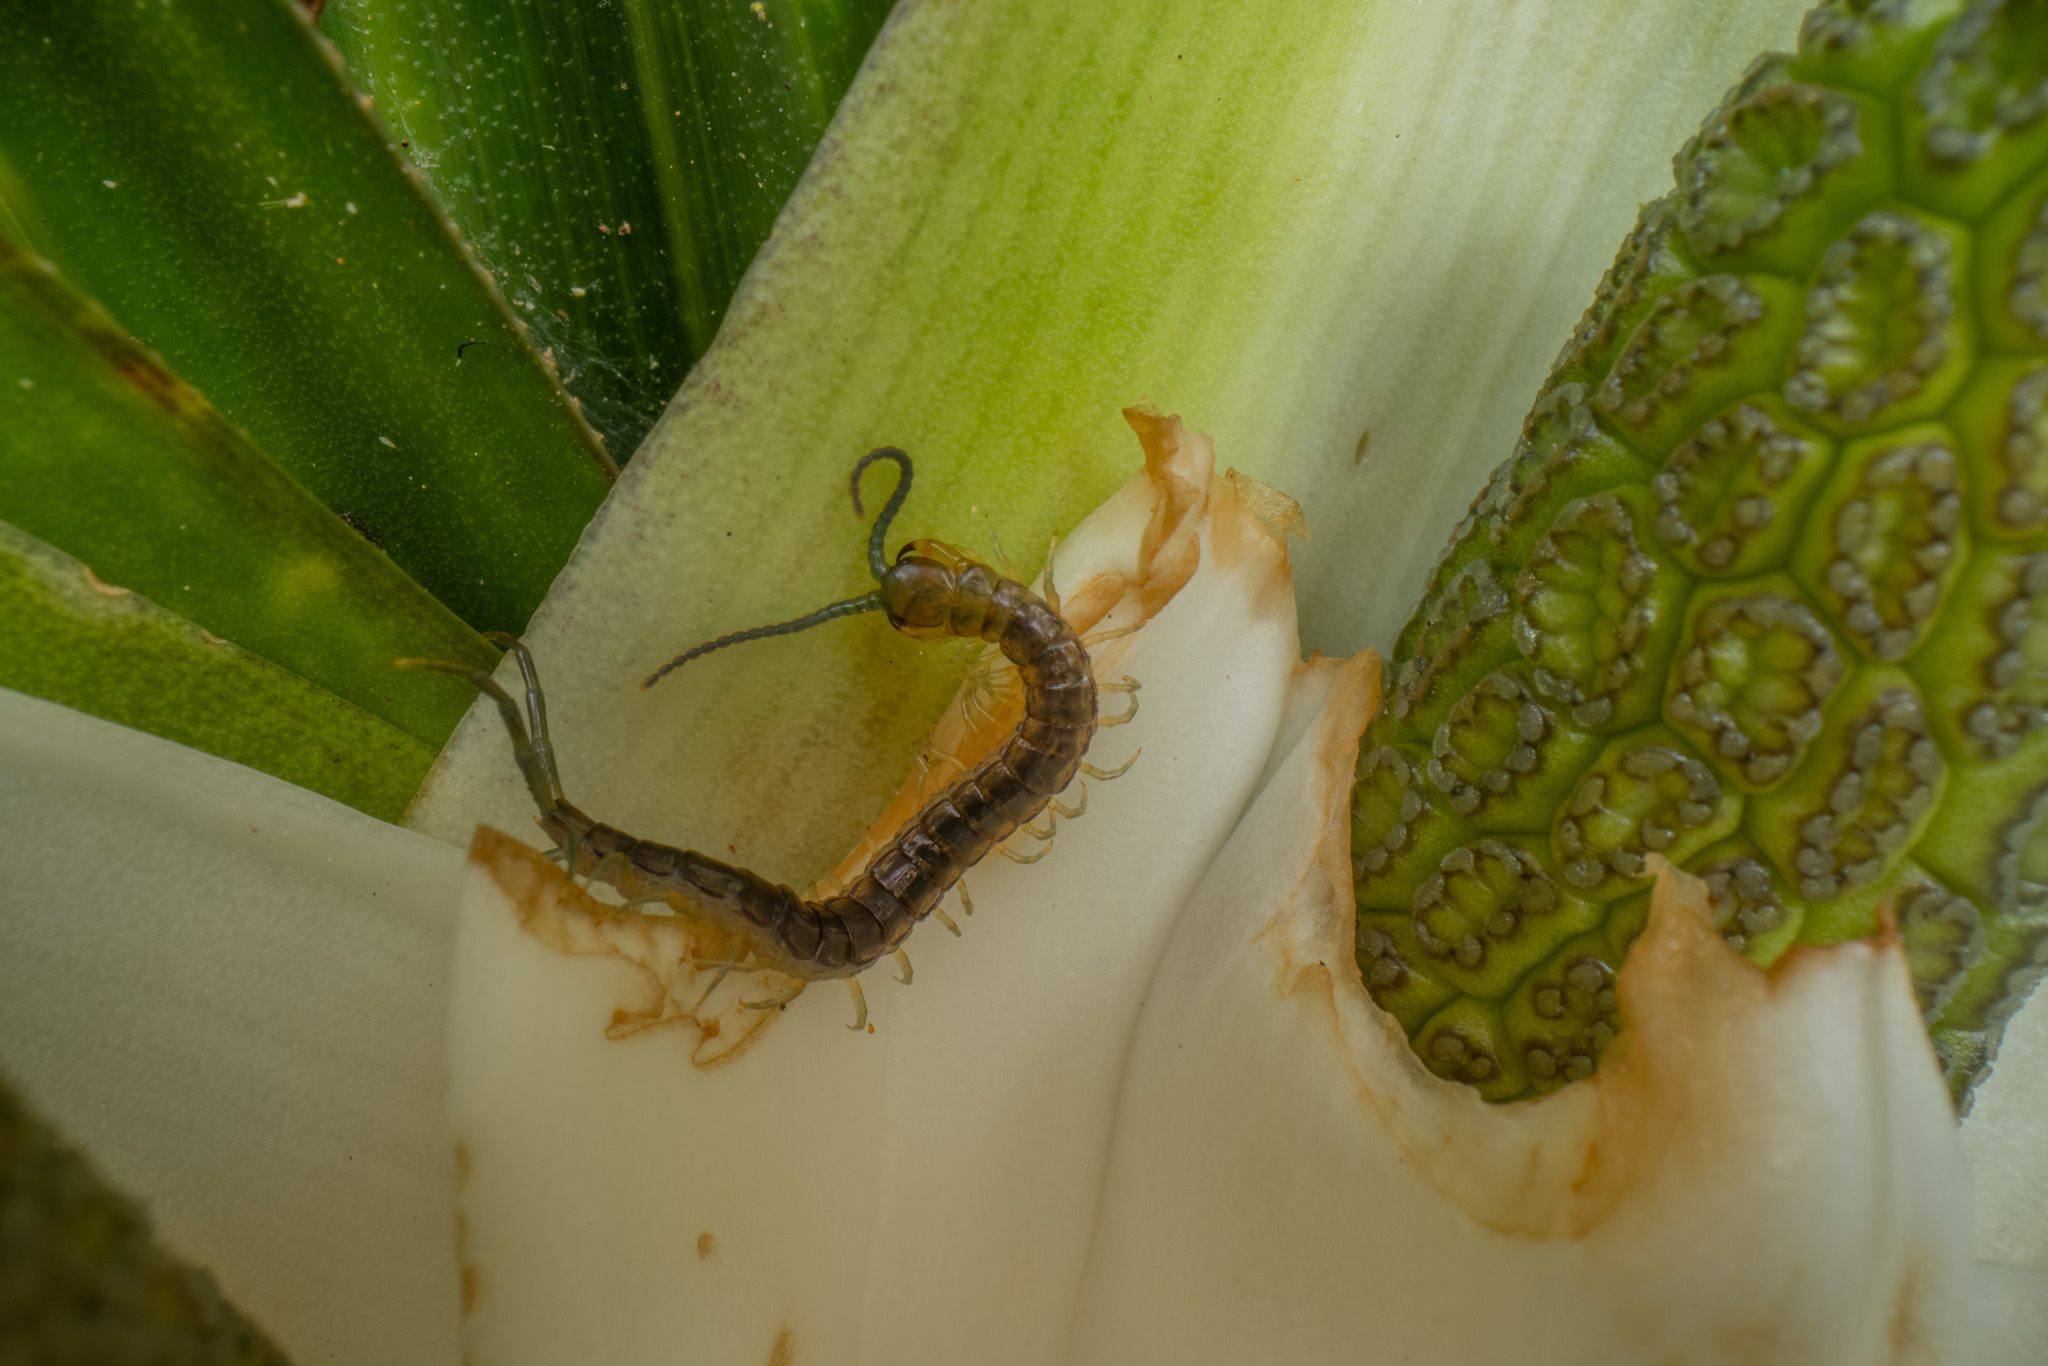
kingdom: Animalia
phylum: Arthropoda
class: Chilopoda
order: Scolopendromorpha
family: Scolopendridae
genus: Cormocephalus
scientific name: Cormocephalus rubriceps
